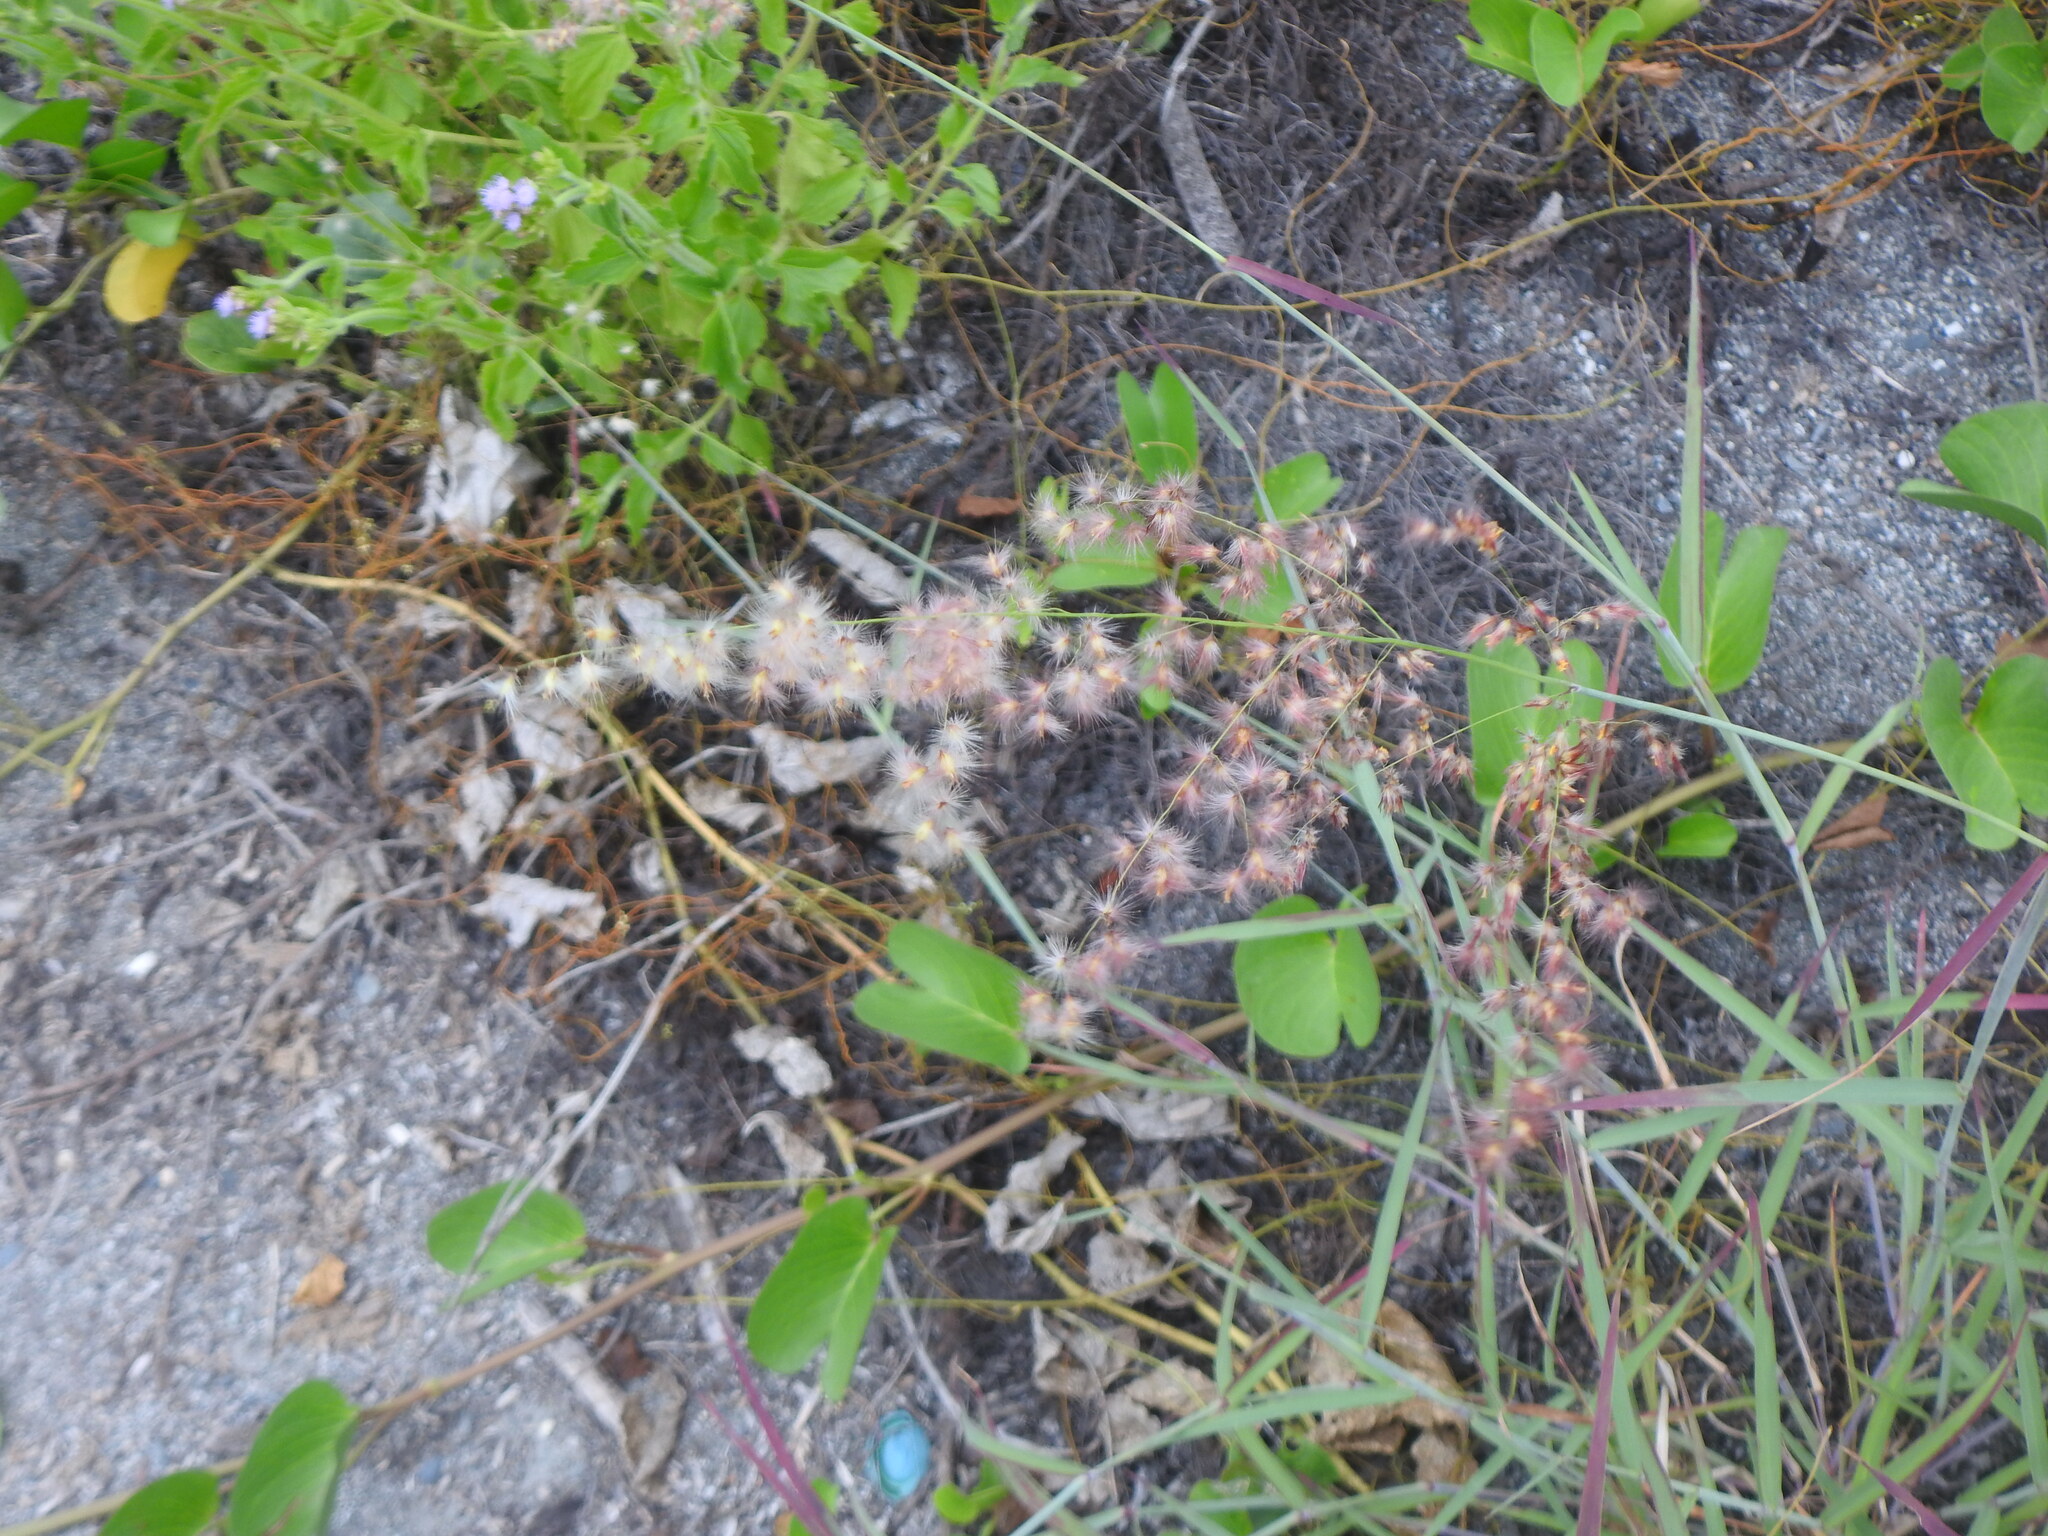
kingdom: Plantae
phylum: Tracheophyta
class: Liliopsida
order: Poales
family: Poaceae
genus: Melinis
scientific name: Melinis repens
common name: Rose natal grass
